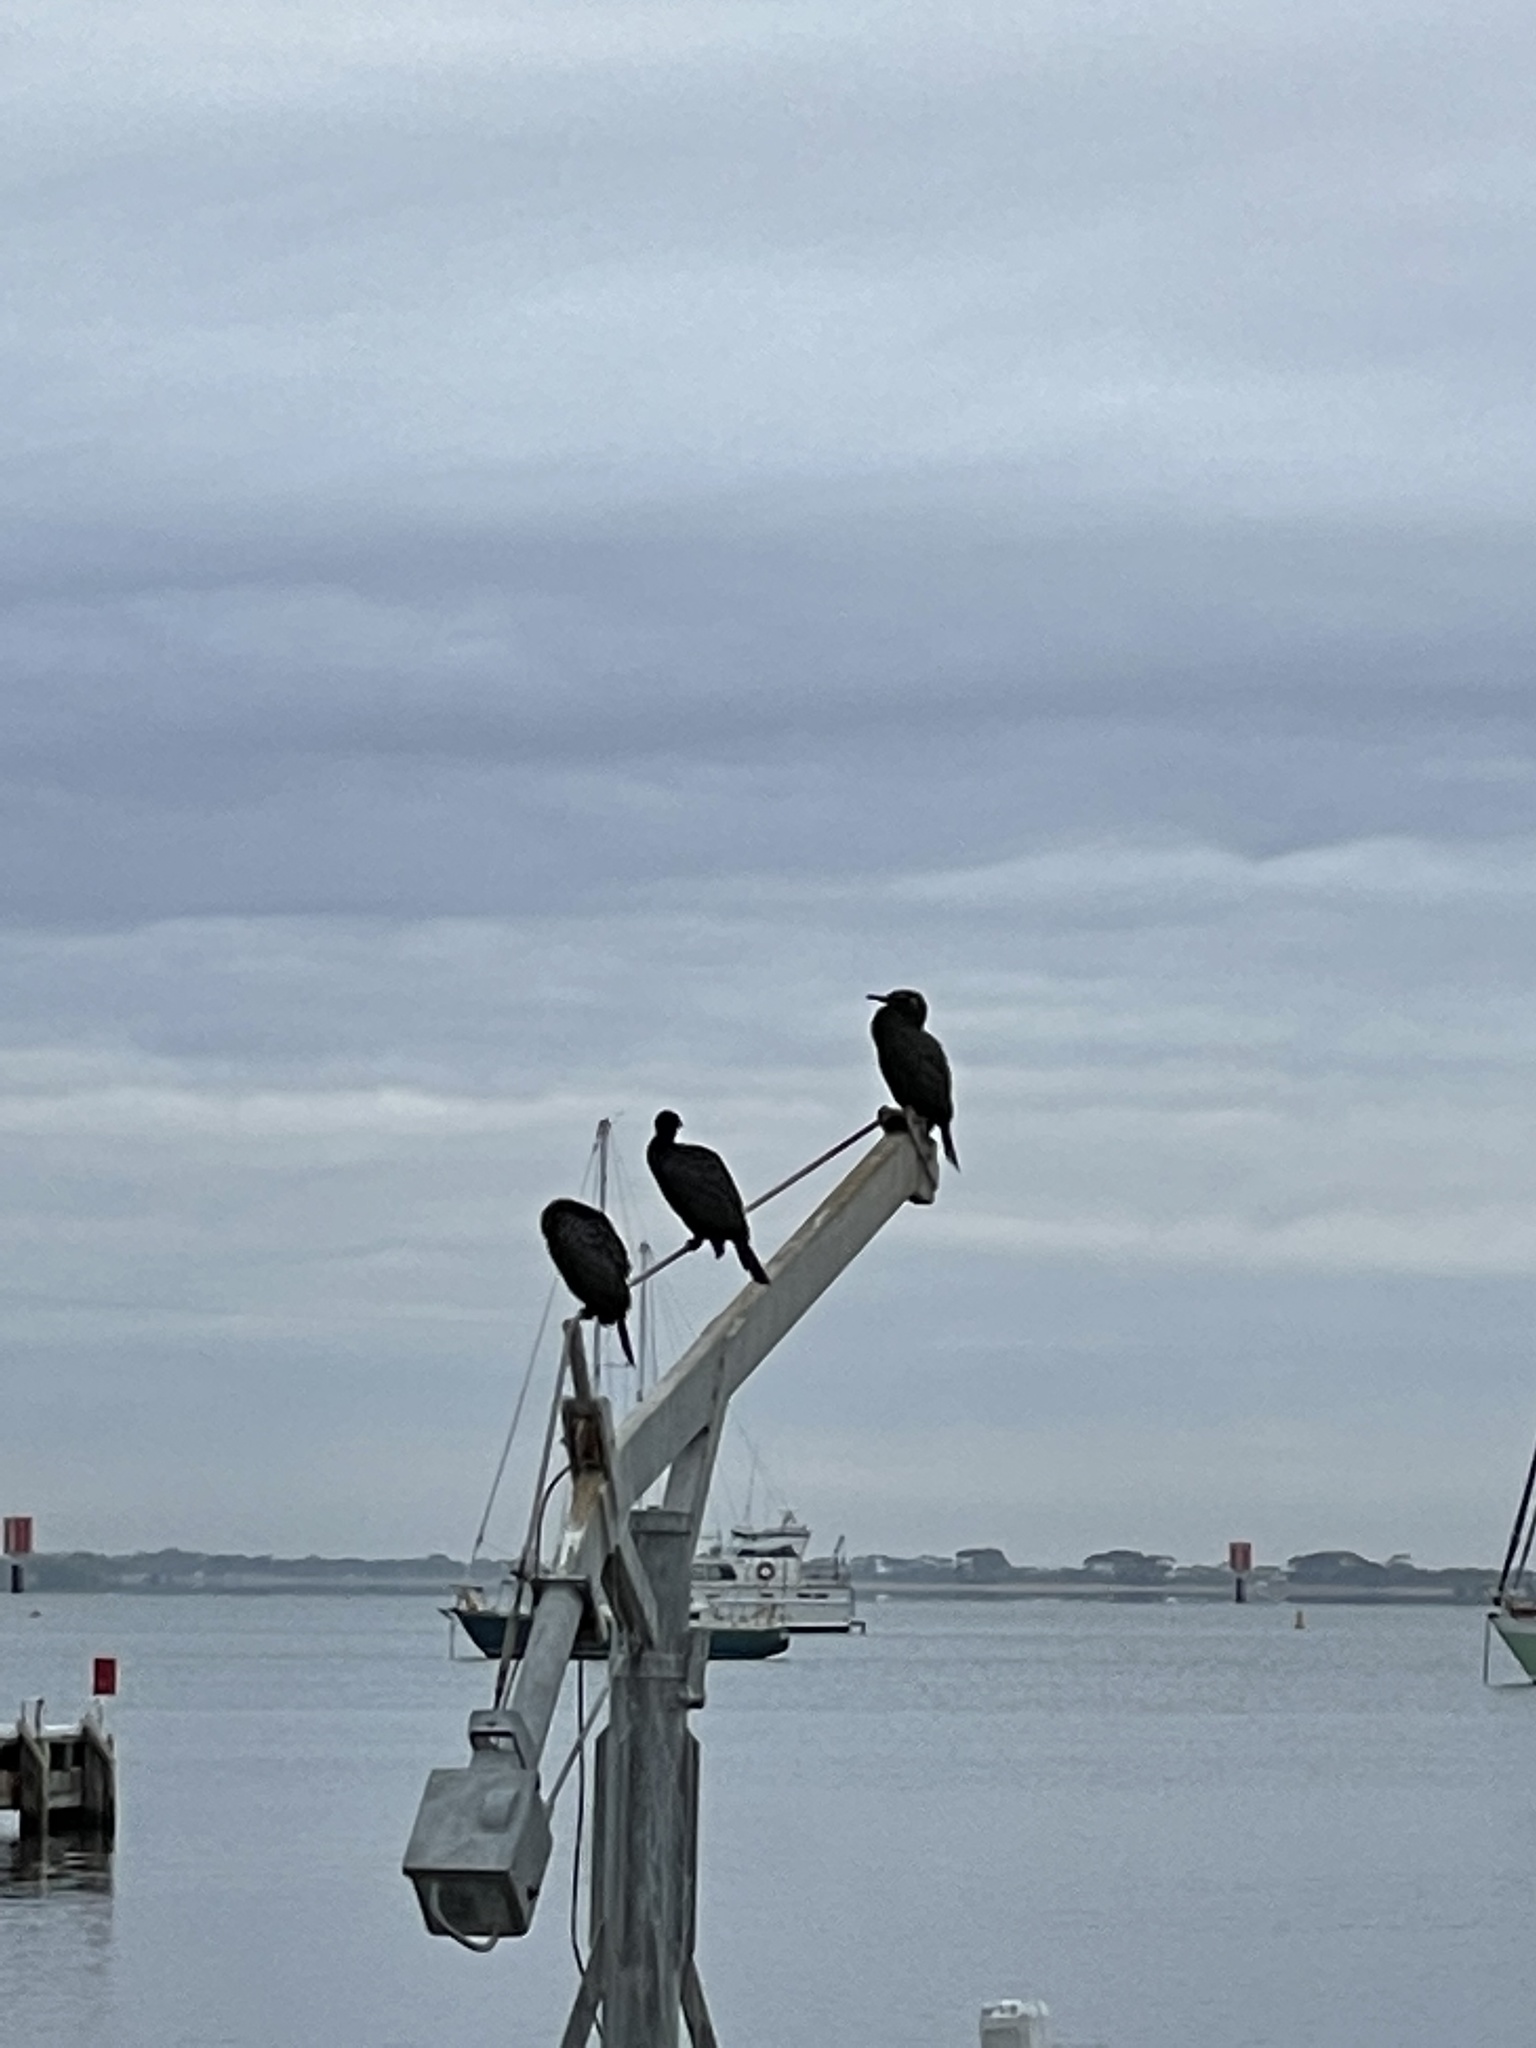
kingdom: Animalia
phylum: Chordata
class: Aves
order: Suliformes
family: Phalacrocoracidae
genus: Phalacrocorax
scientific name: Phalacrocorax sulcirostris
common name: Little black cormorant
